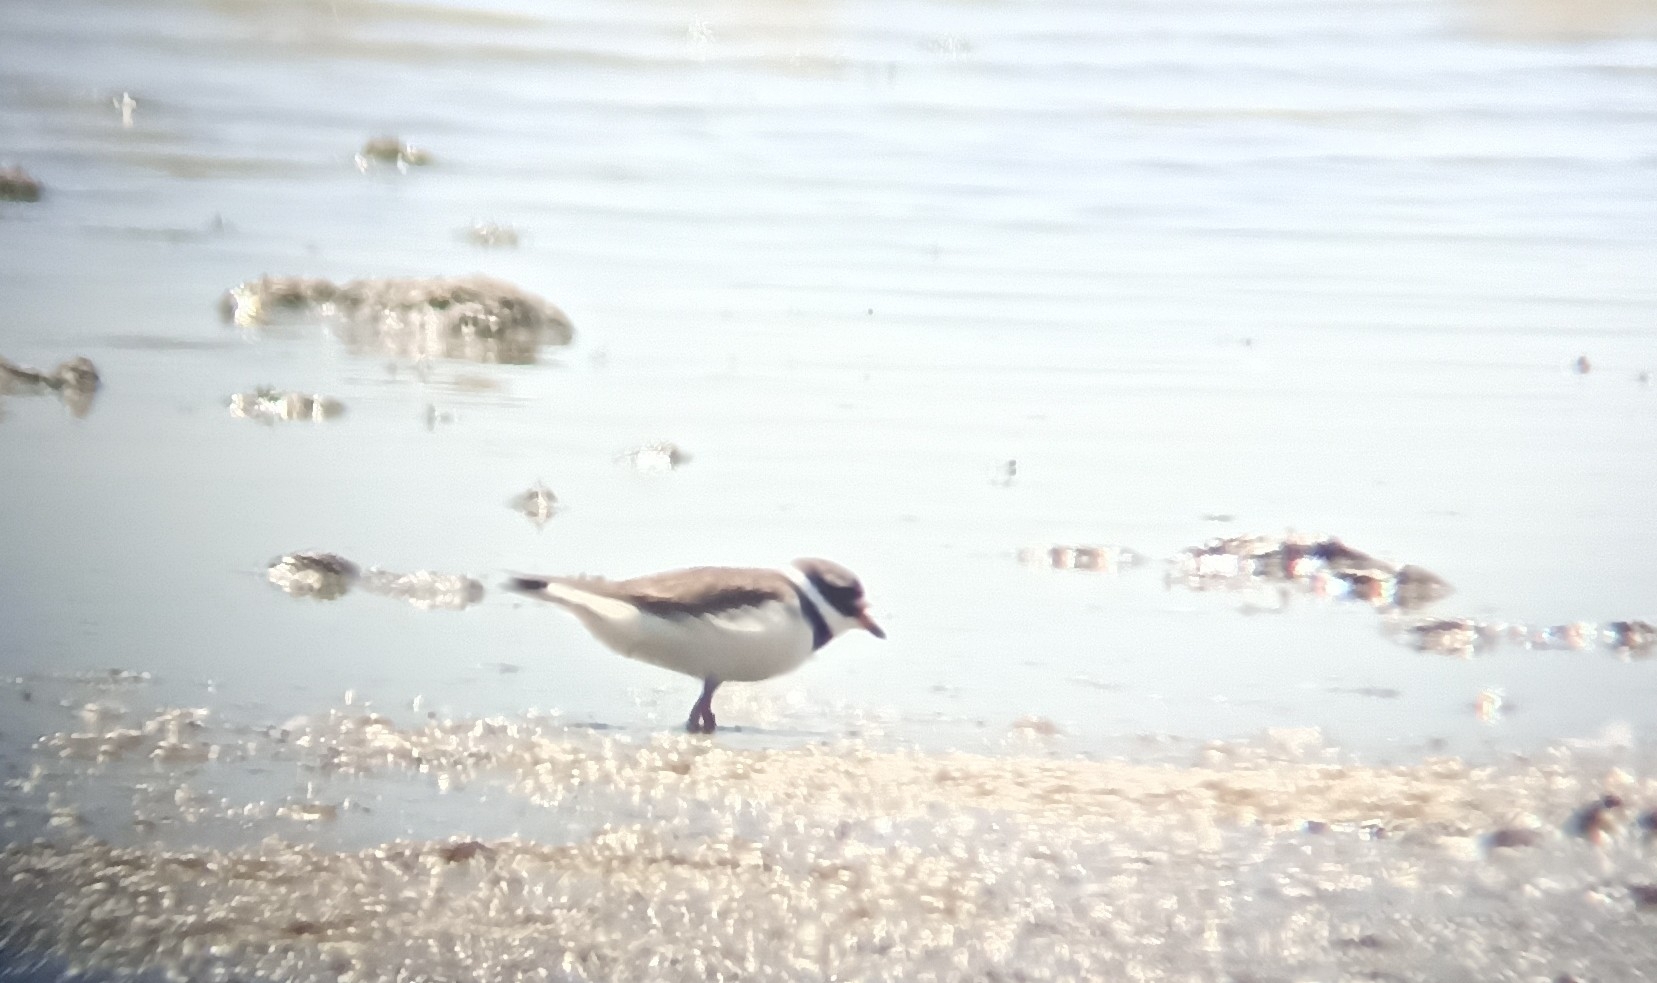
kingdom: Animalia
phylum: Chordata
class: Aves
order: Charadriiformes
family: Charadriidae
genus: Charadrius
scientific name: Charadrius hiaticula
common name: Common ringed plover
